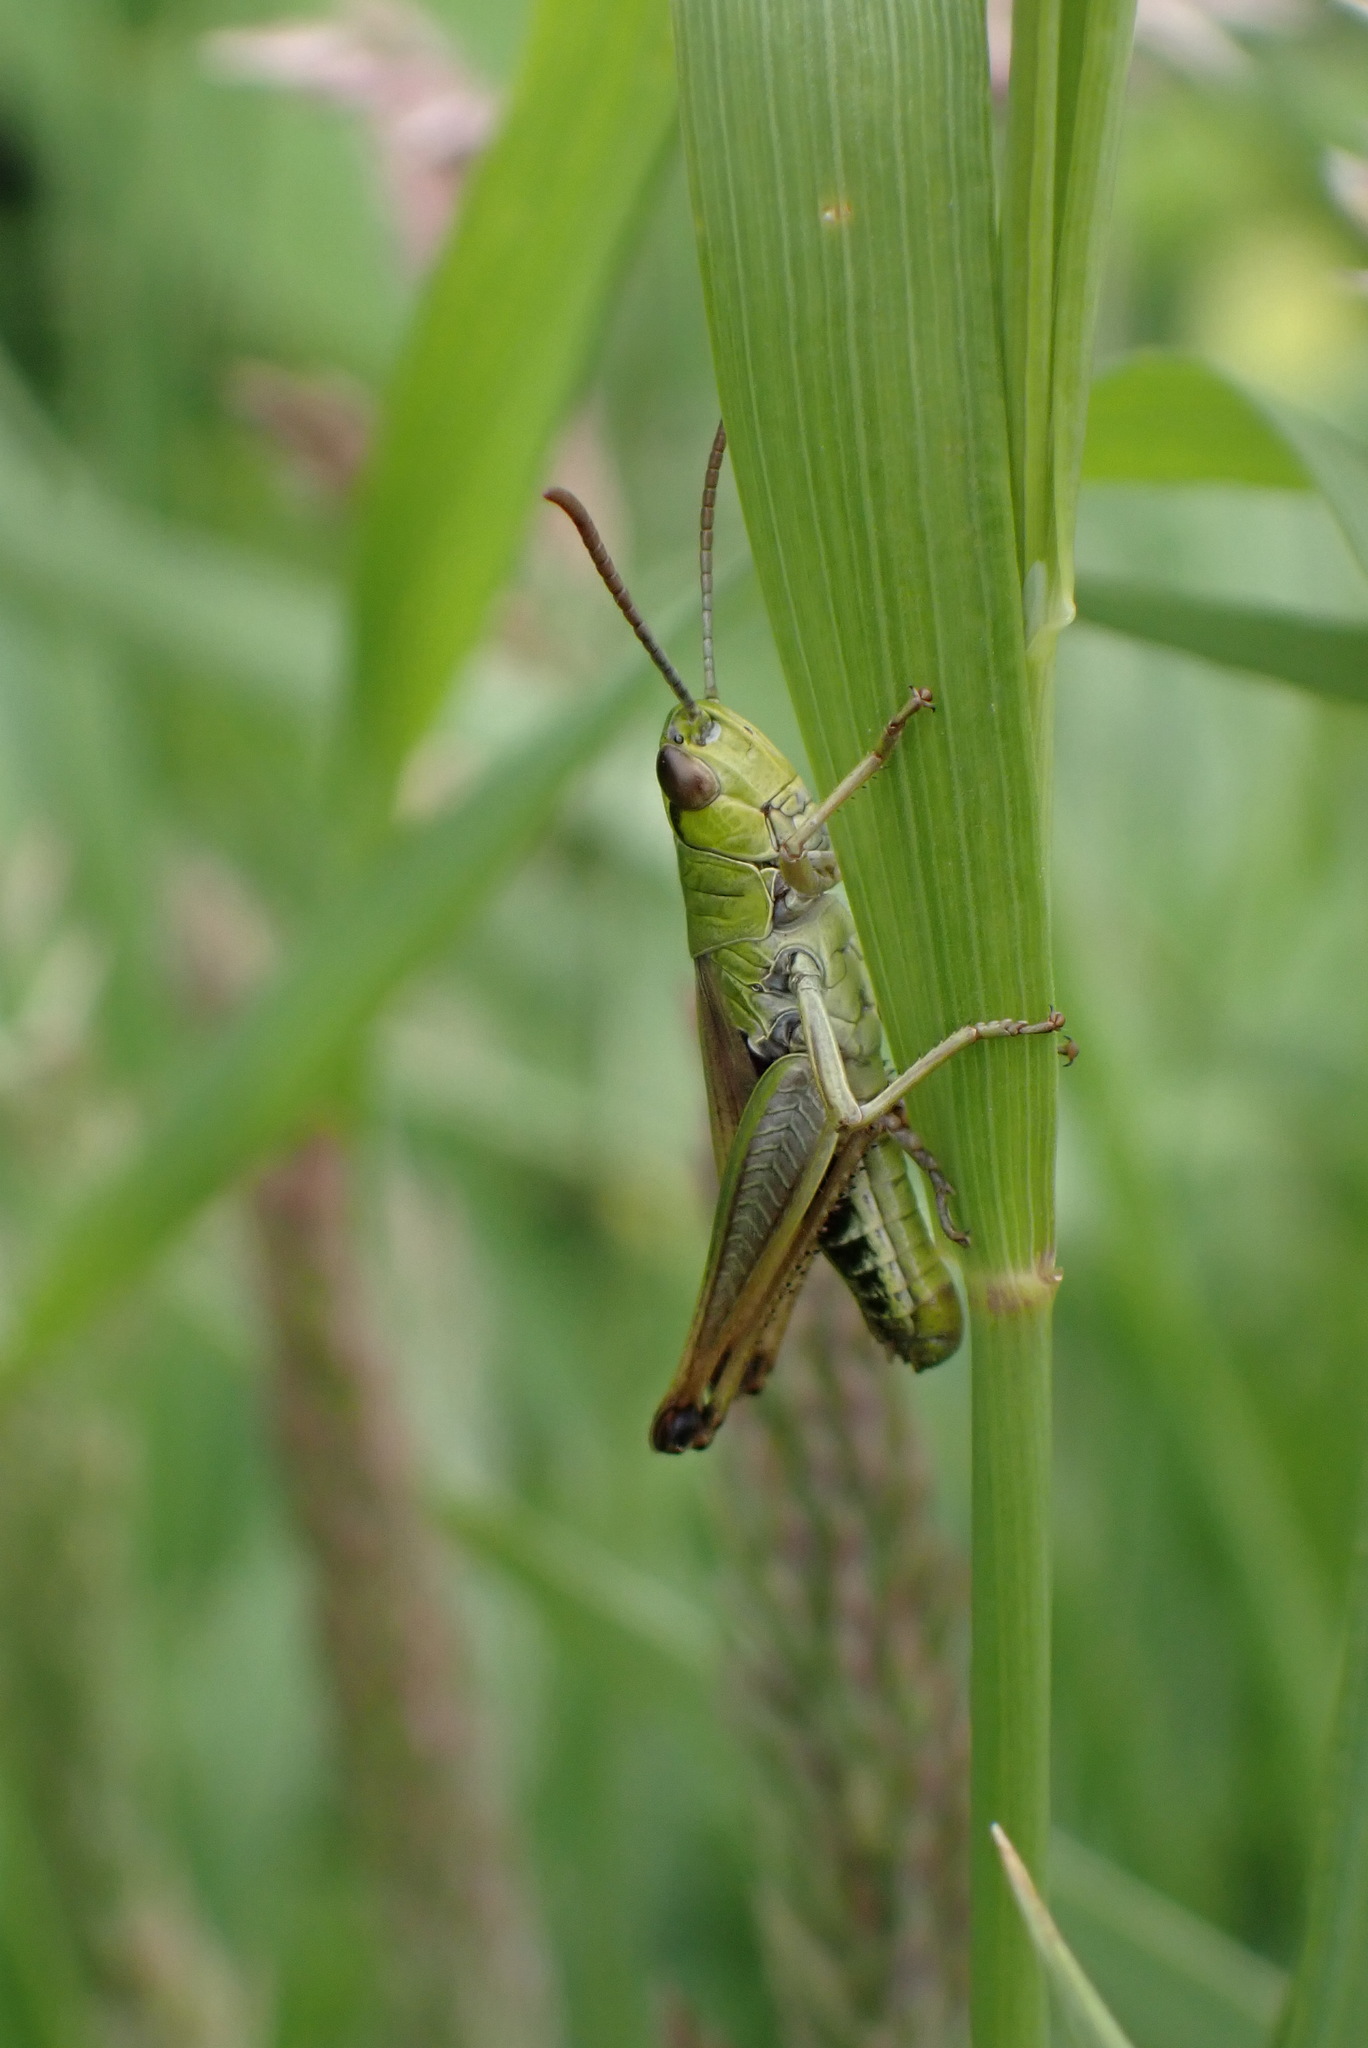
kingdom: Animalia
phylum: Arthropoda
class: Insecta
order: Orthoptera
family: Acrididae
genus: Pseudochorthippus
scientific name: Pseudochorthippus parallelus
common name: Meadow grasshopper
